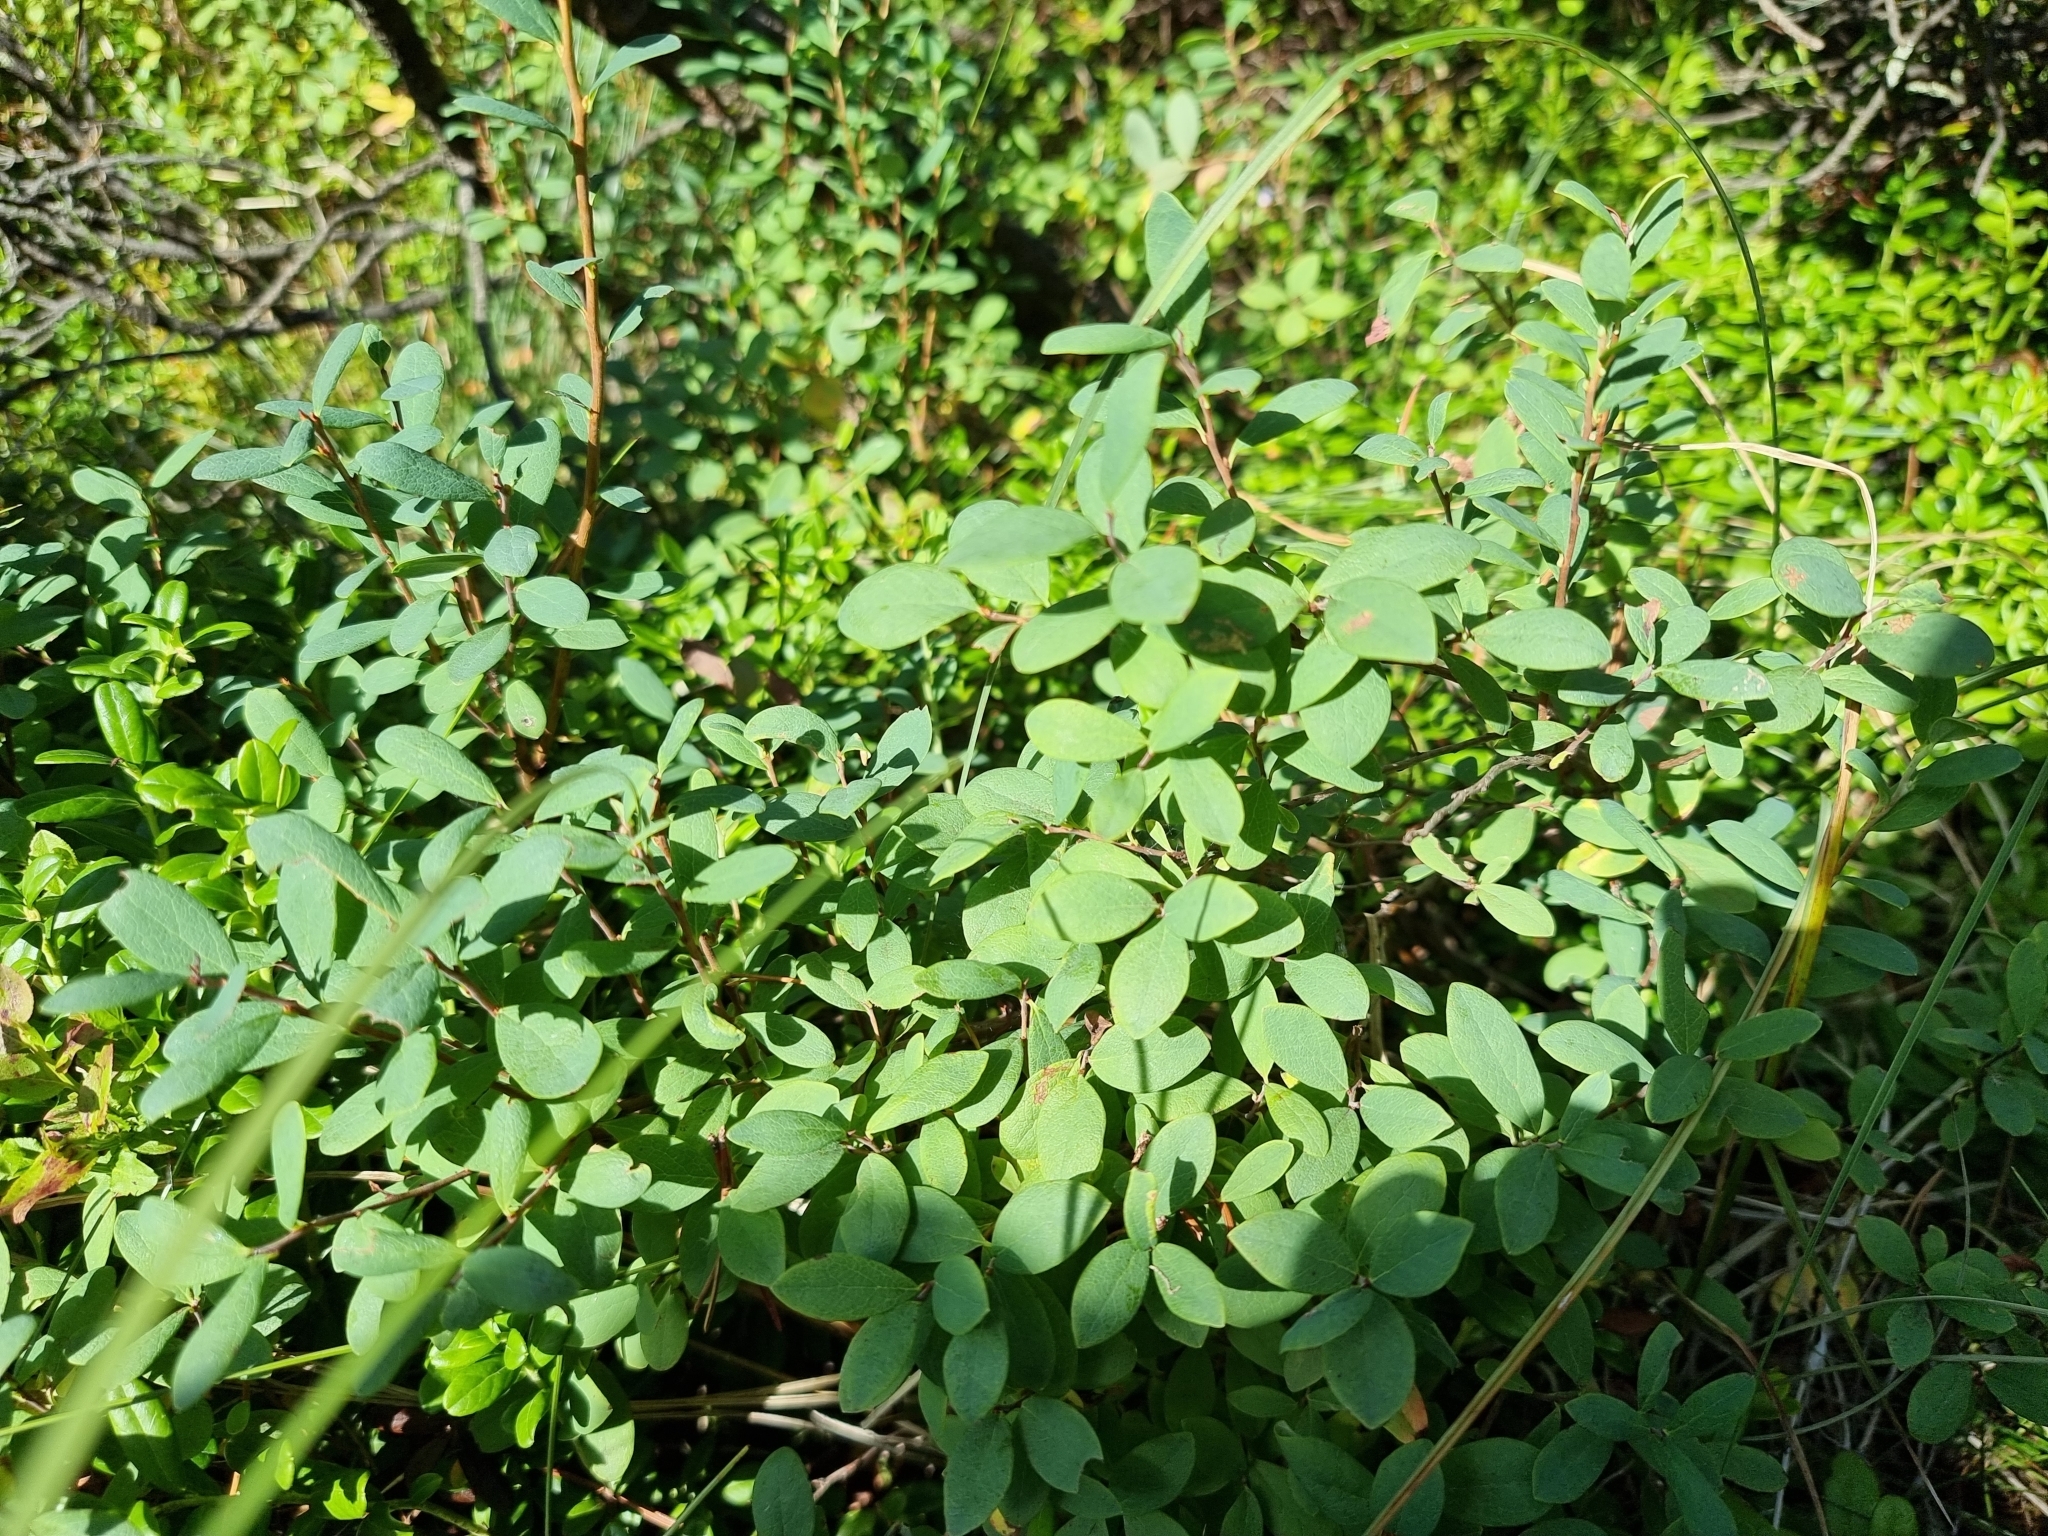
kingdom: Plantae
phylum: Tracheophyta
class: Magnoliopsida
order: Ericales
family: Ericaceae
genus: Vaccinium
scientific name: Vaccinium uliginosum
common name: Bog bilberry
